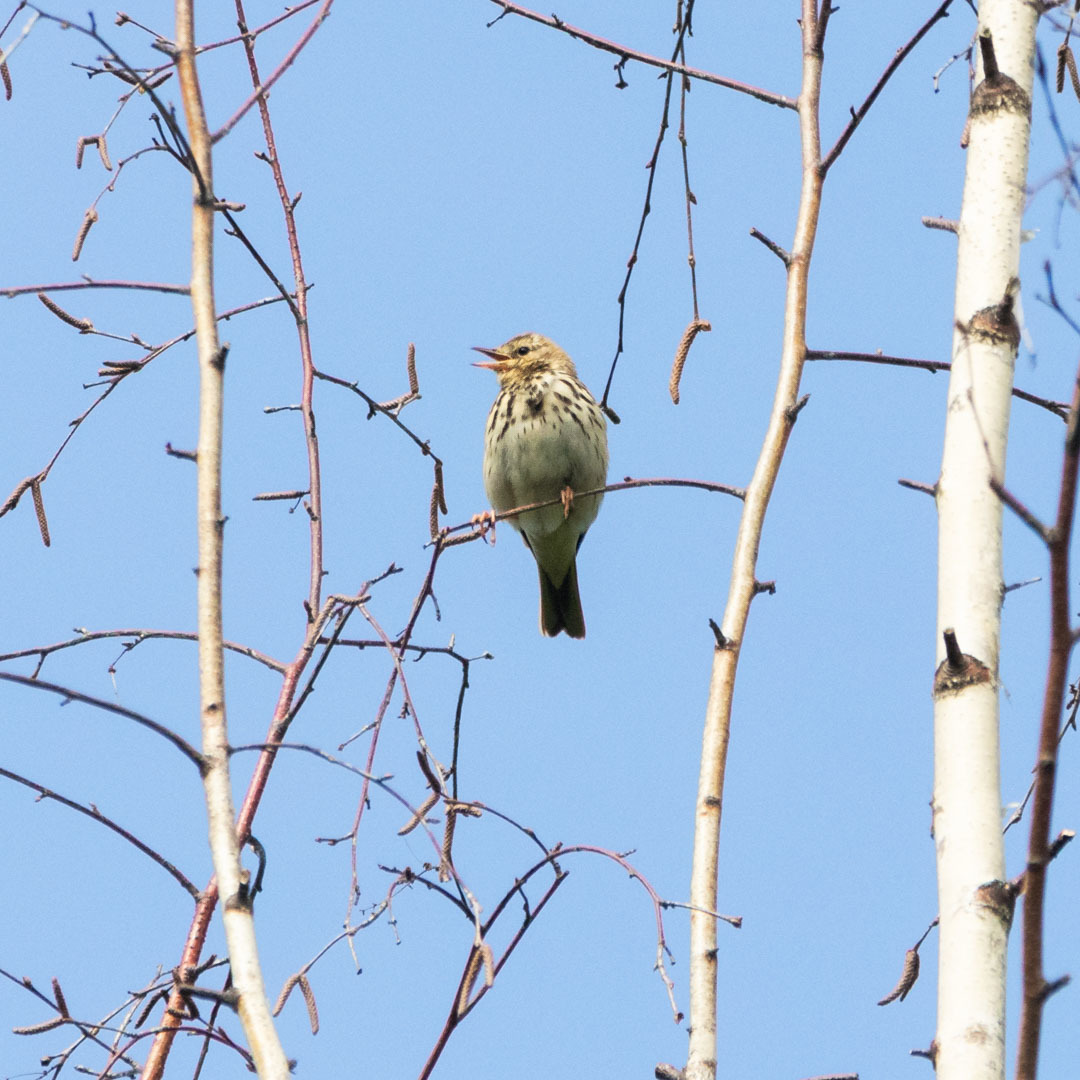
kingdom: Animalia
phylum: Chordata
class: Aves
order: Passeriformes
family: Motacillidae
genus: Anthus
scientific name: Anthus trivialis
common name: Tree pipit
